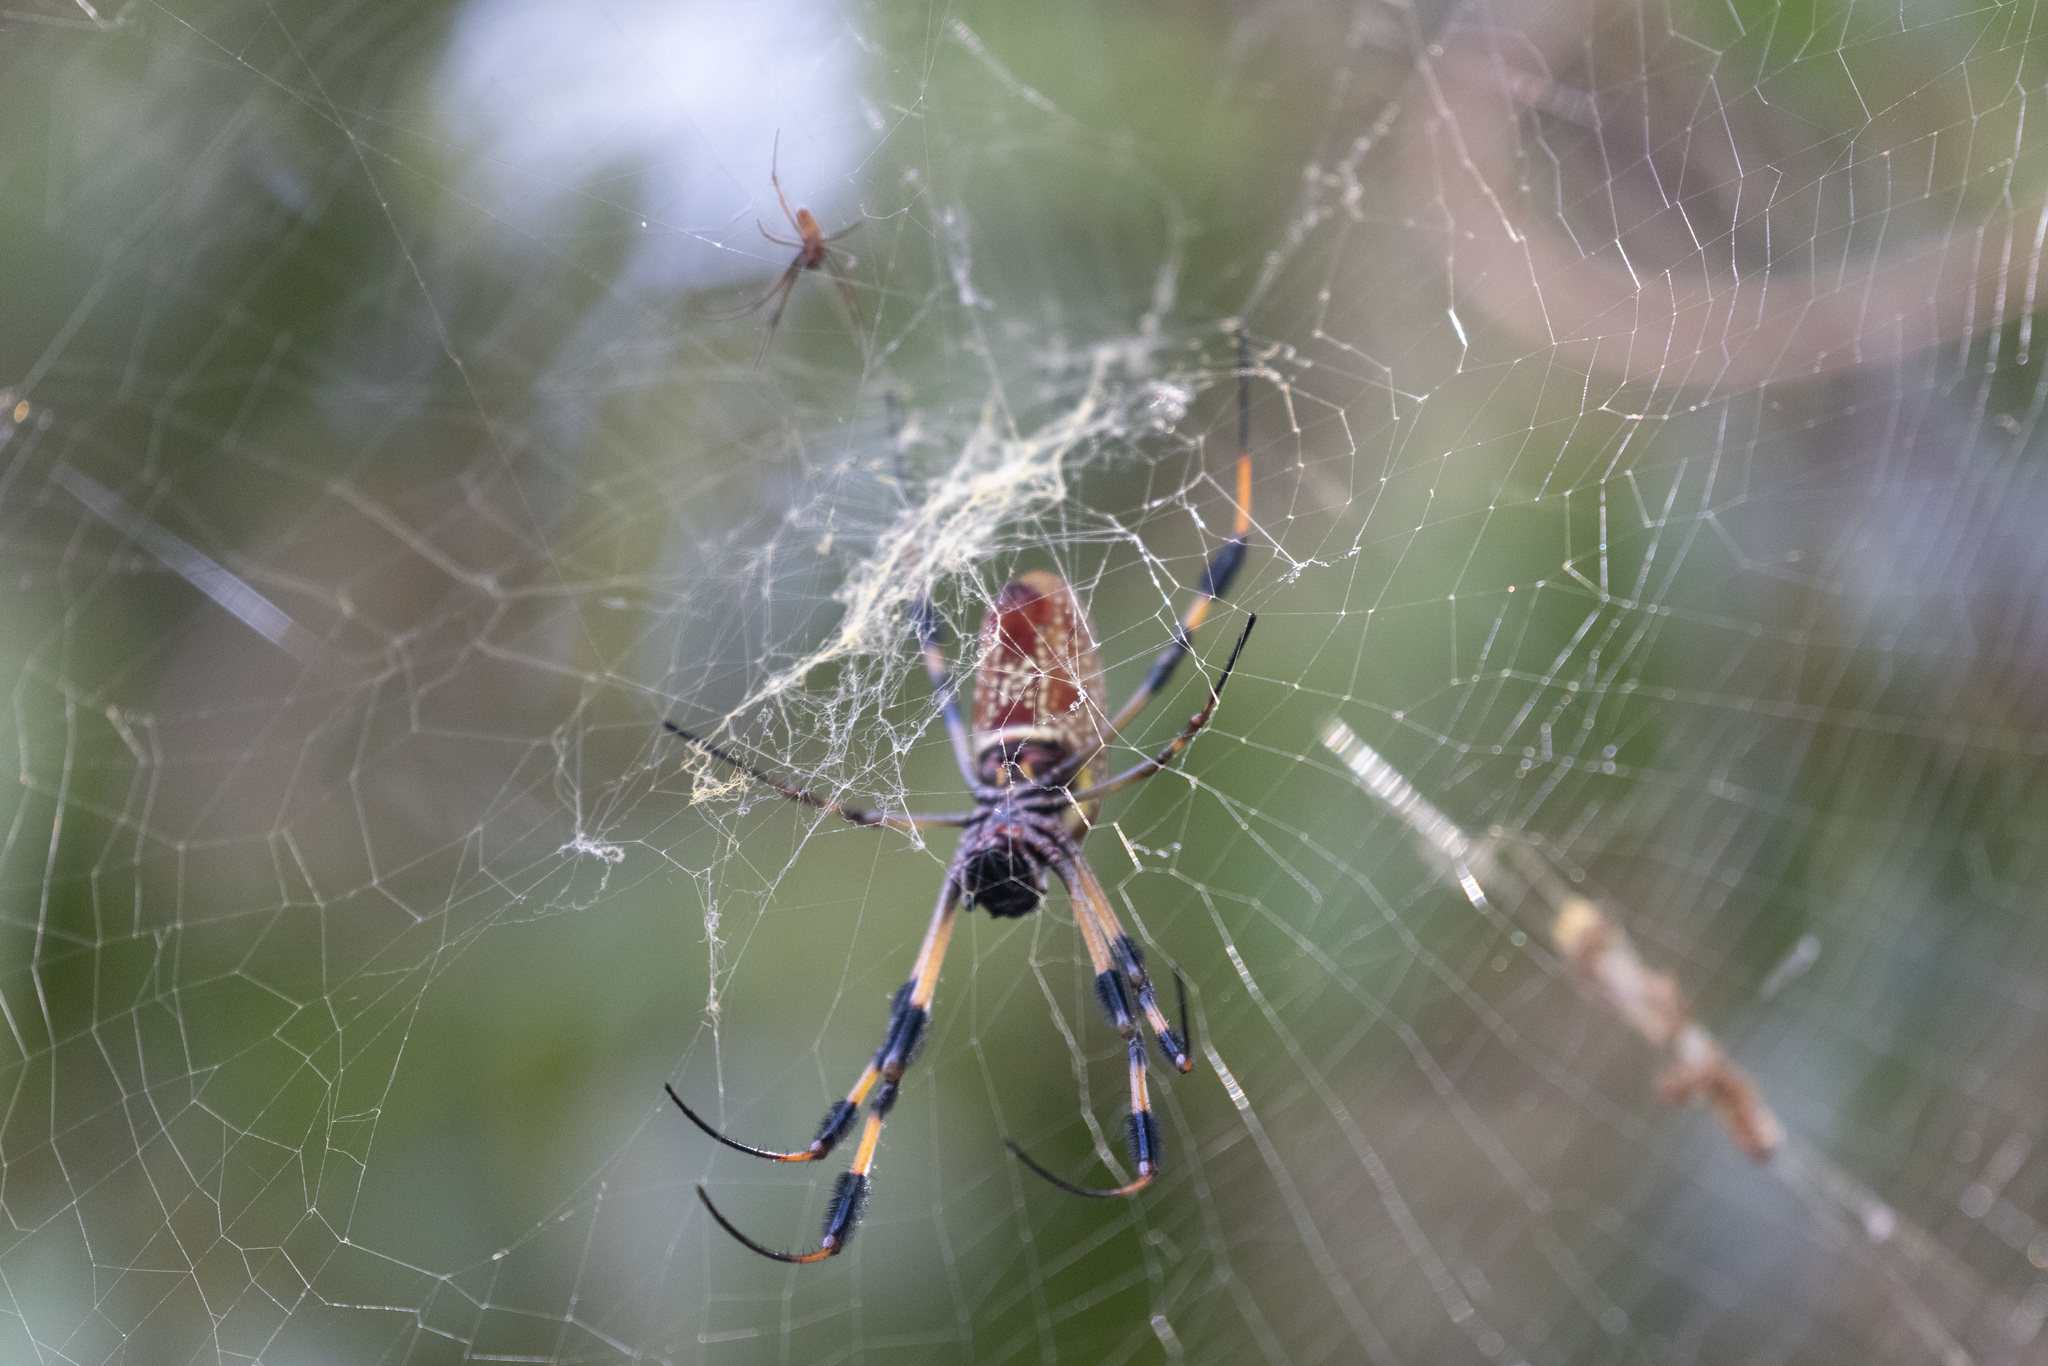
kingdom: Animalia
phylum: Arthropoda
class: Arachnida
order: Araneae
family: Araneidae
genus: Trichonephila
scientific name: Trichonephila clavipes
